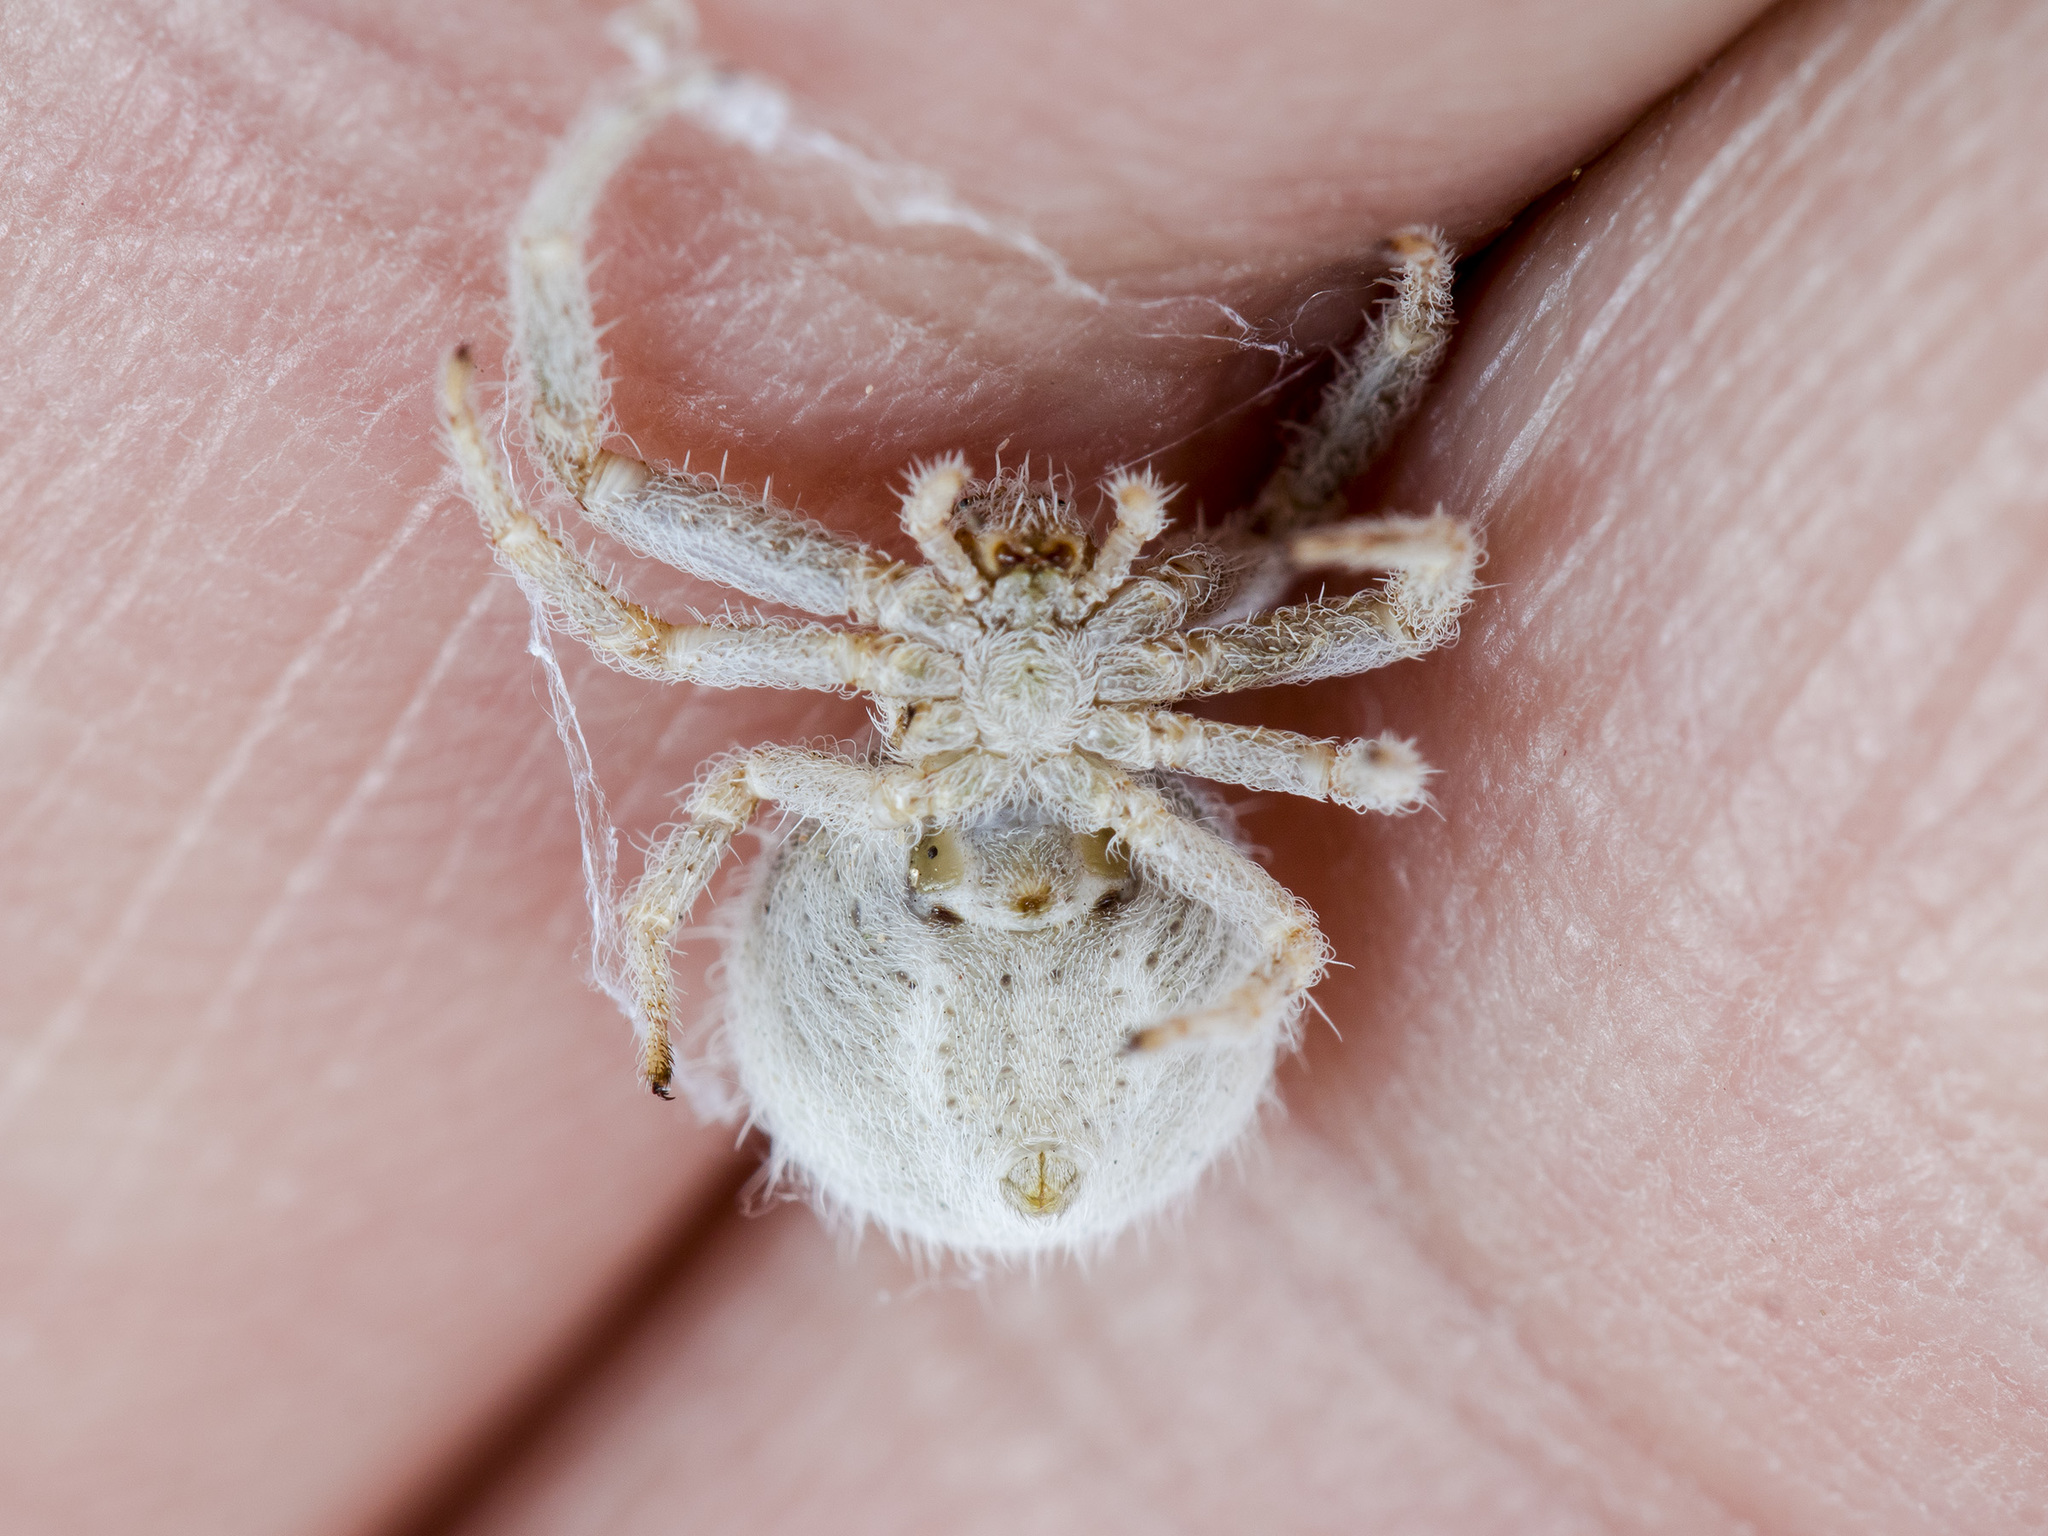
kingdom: Animalia
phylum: Arthropoda
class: Arachnida
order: Araneae
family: Thomisidae
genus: Heriaeus
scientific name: Heriaeus horridus
